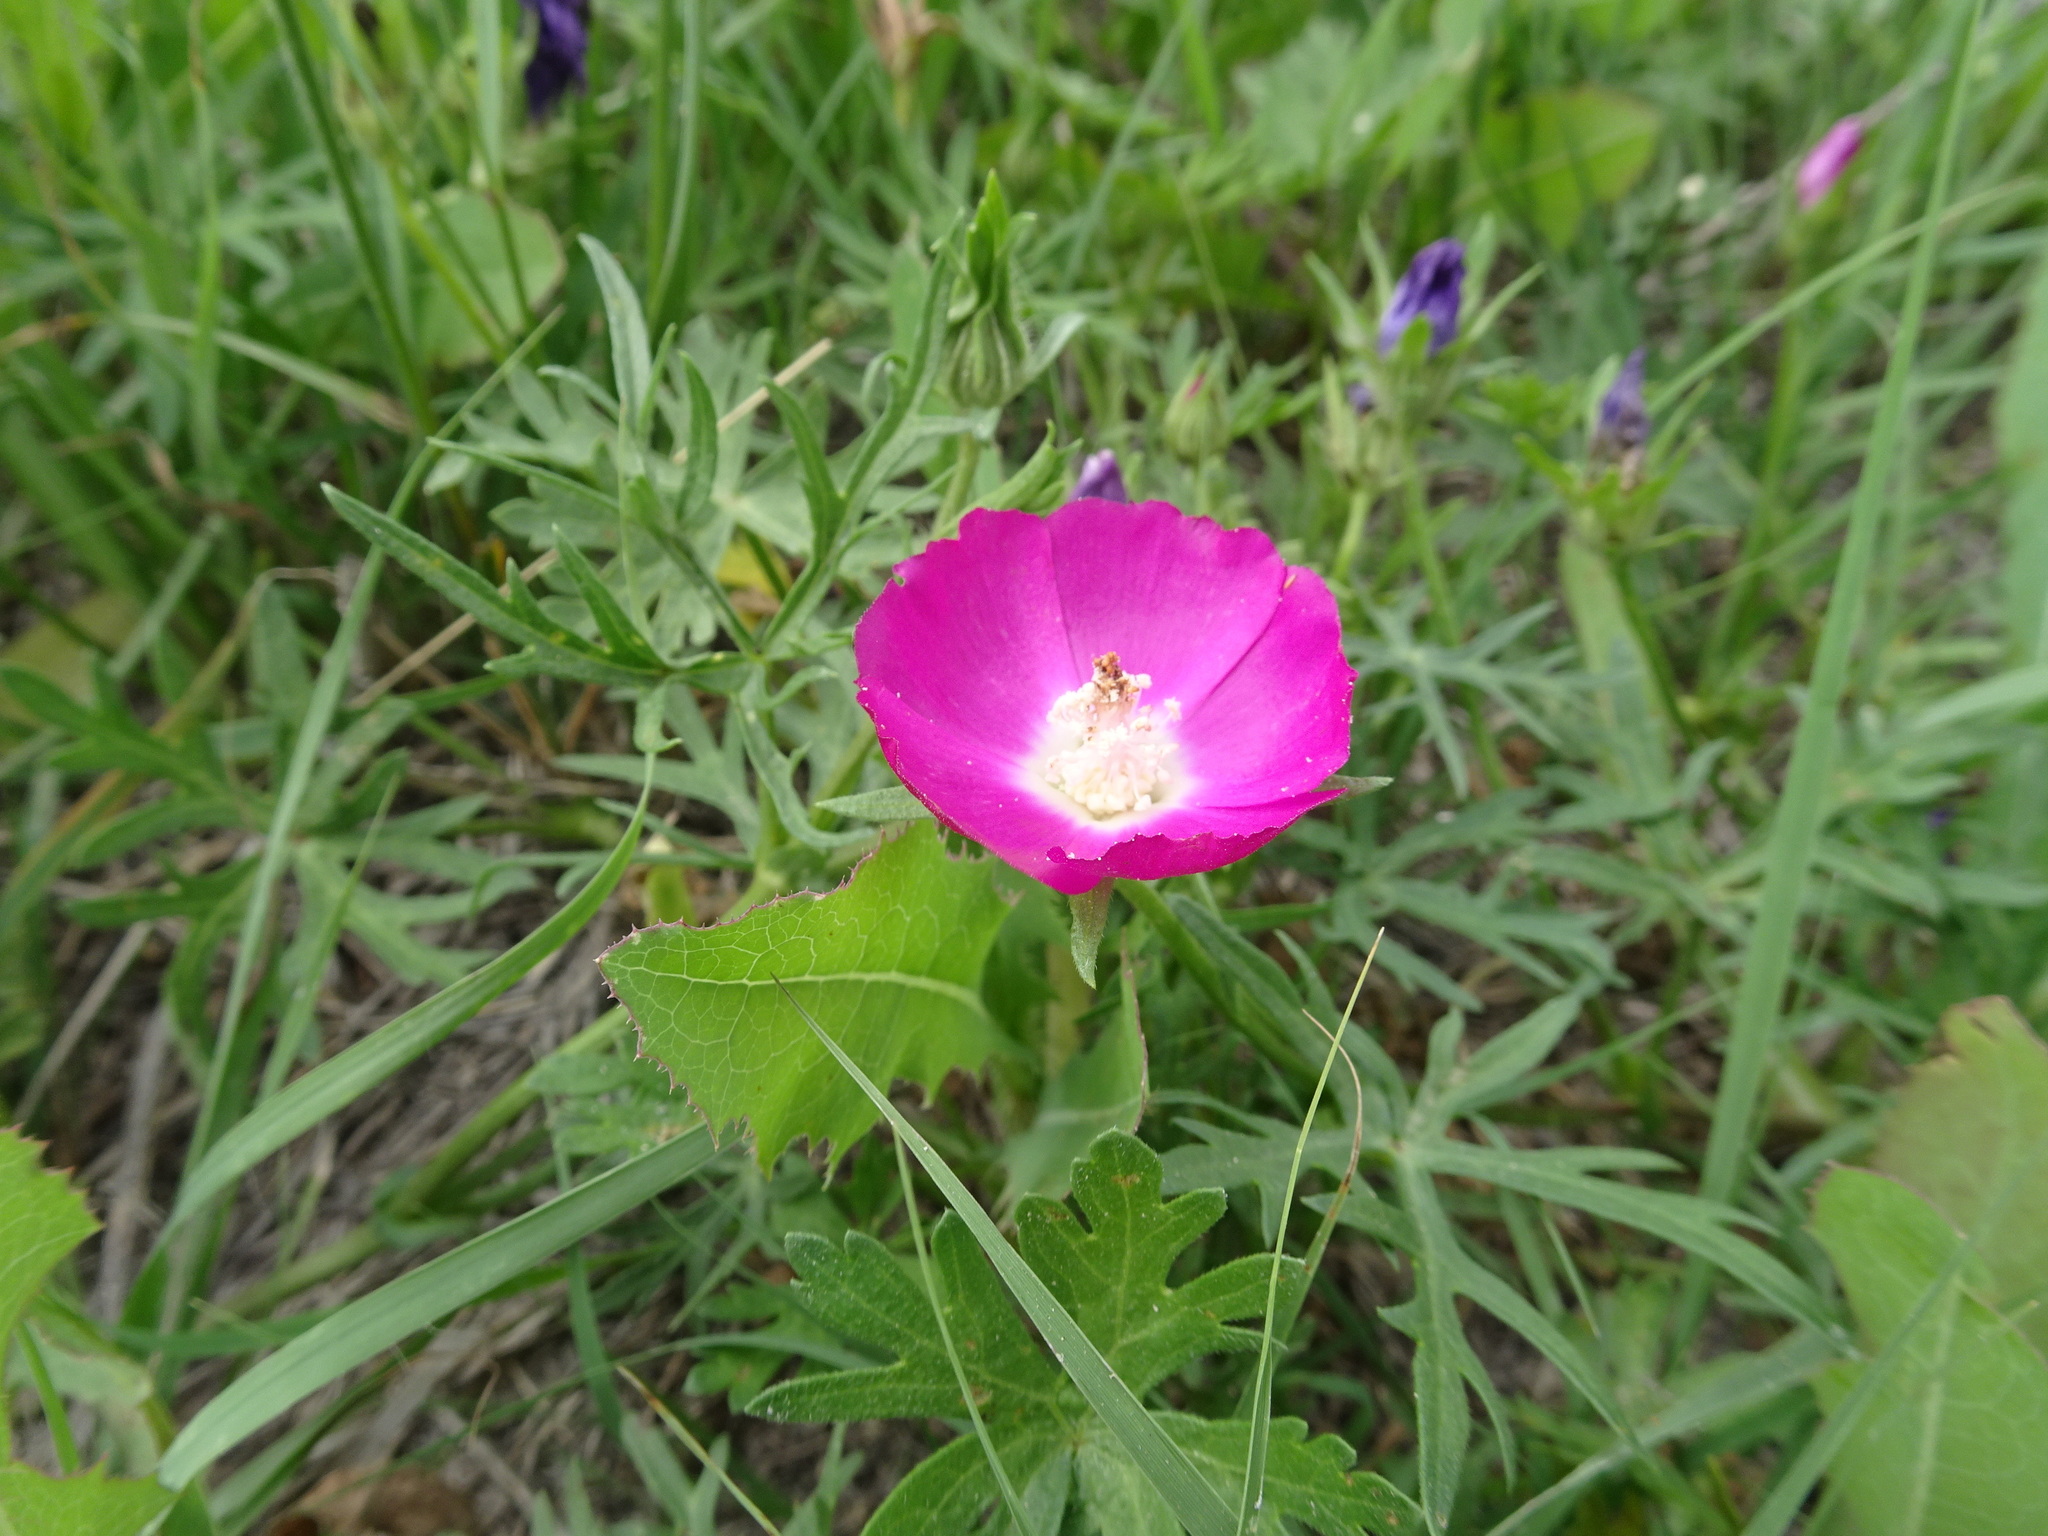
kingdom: Plantae
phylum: Tracheophyta
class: Magnoliopsida
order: Malvales
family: Malvaceae
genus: Callirhoe
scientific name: Callirhoe involucrata
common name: Purple poppy-mallow
